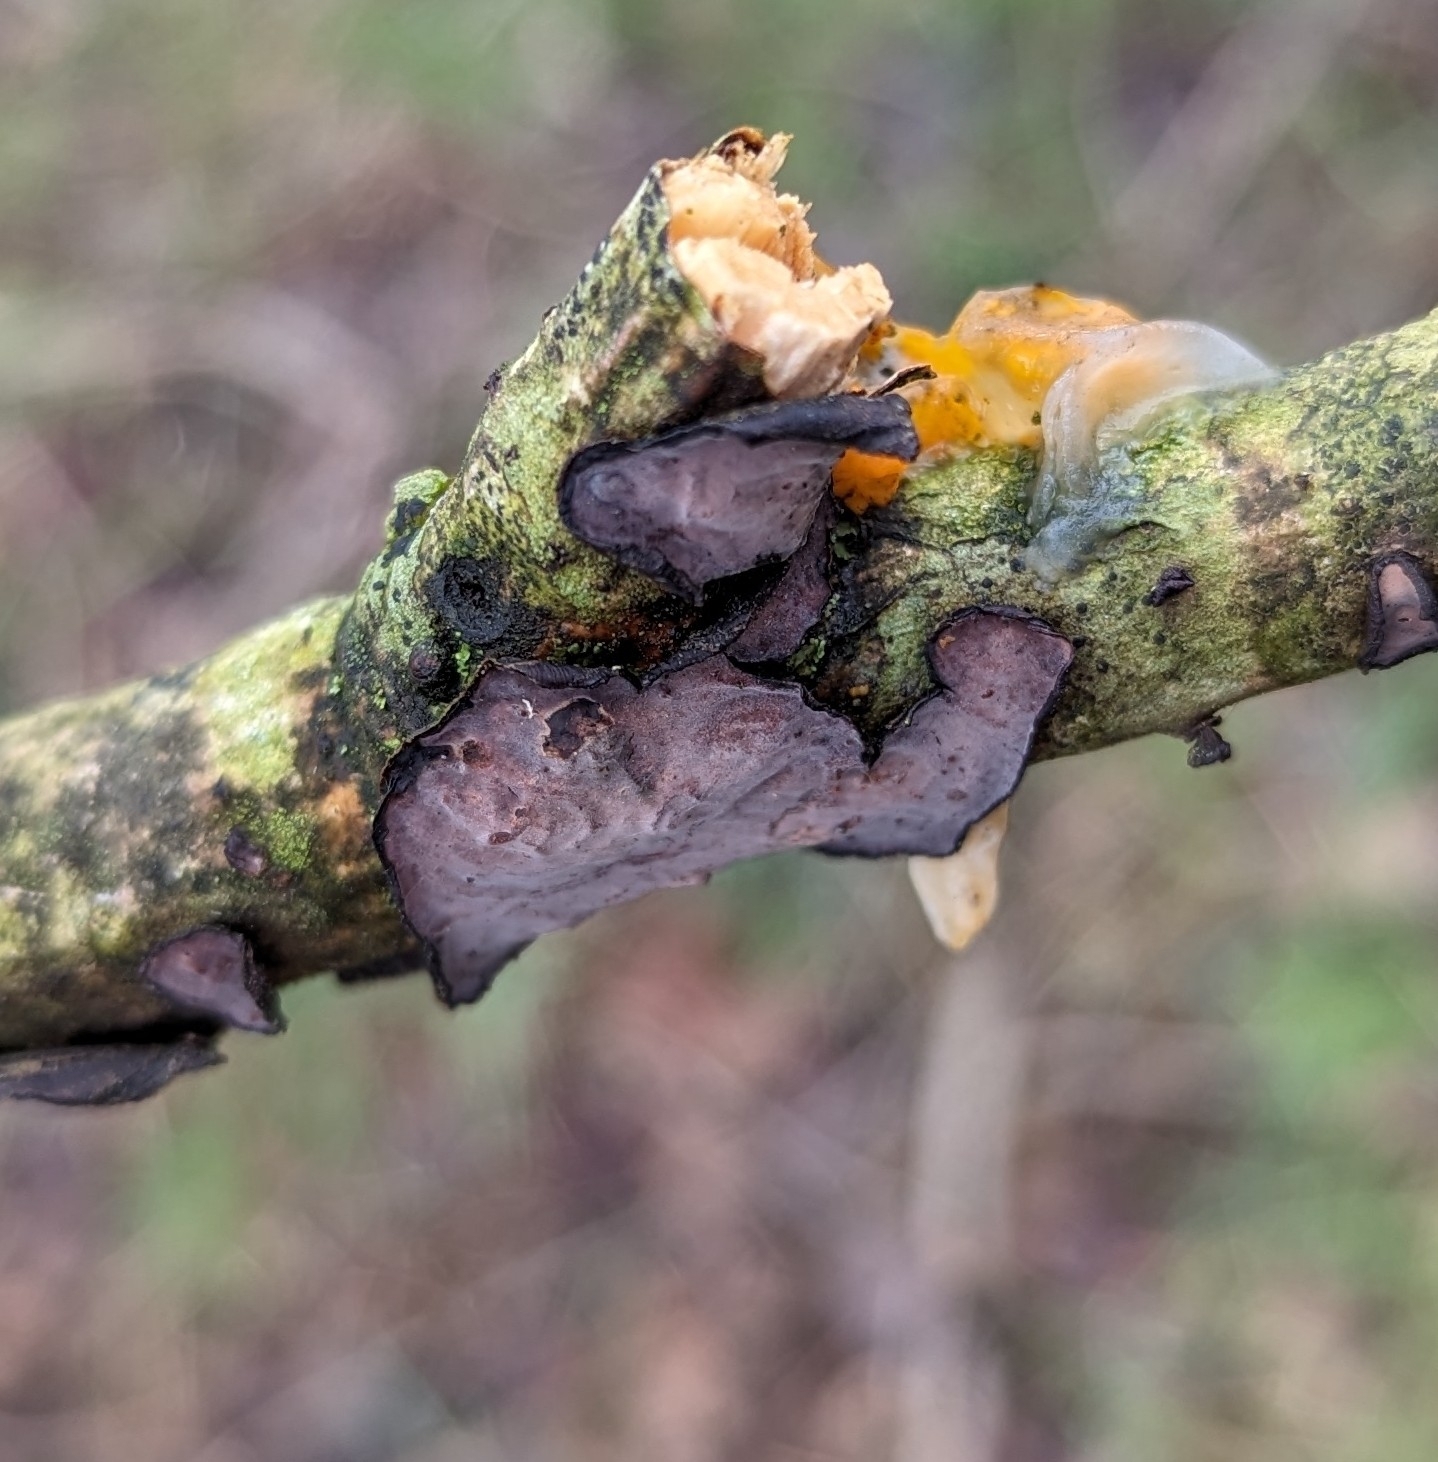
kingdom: Fungi
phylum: Basidiomycota
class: Tremellomycetes
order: Tremellales
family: Tremellaceae
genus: Tremella
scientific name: Tremella mesenterica
